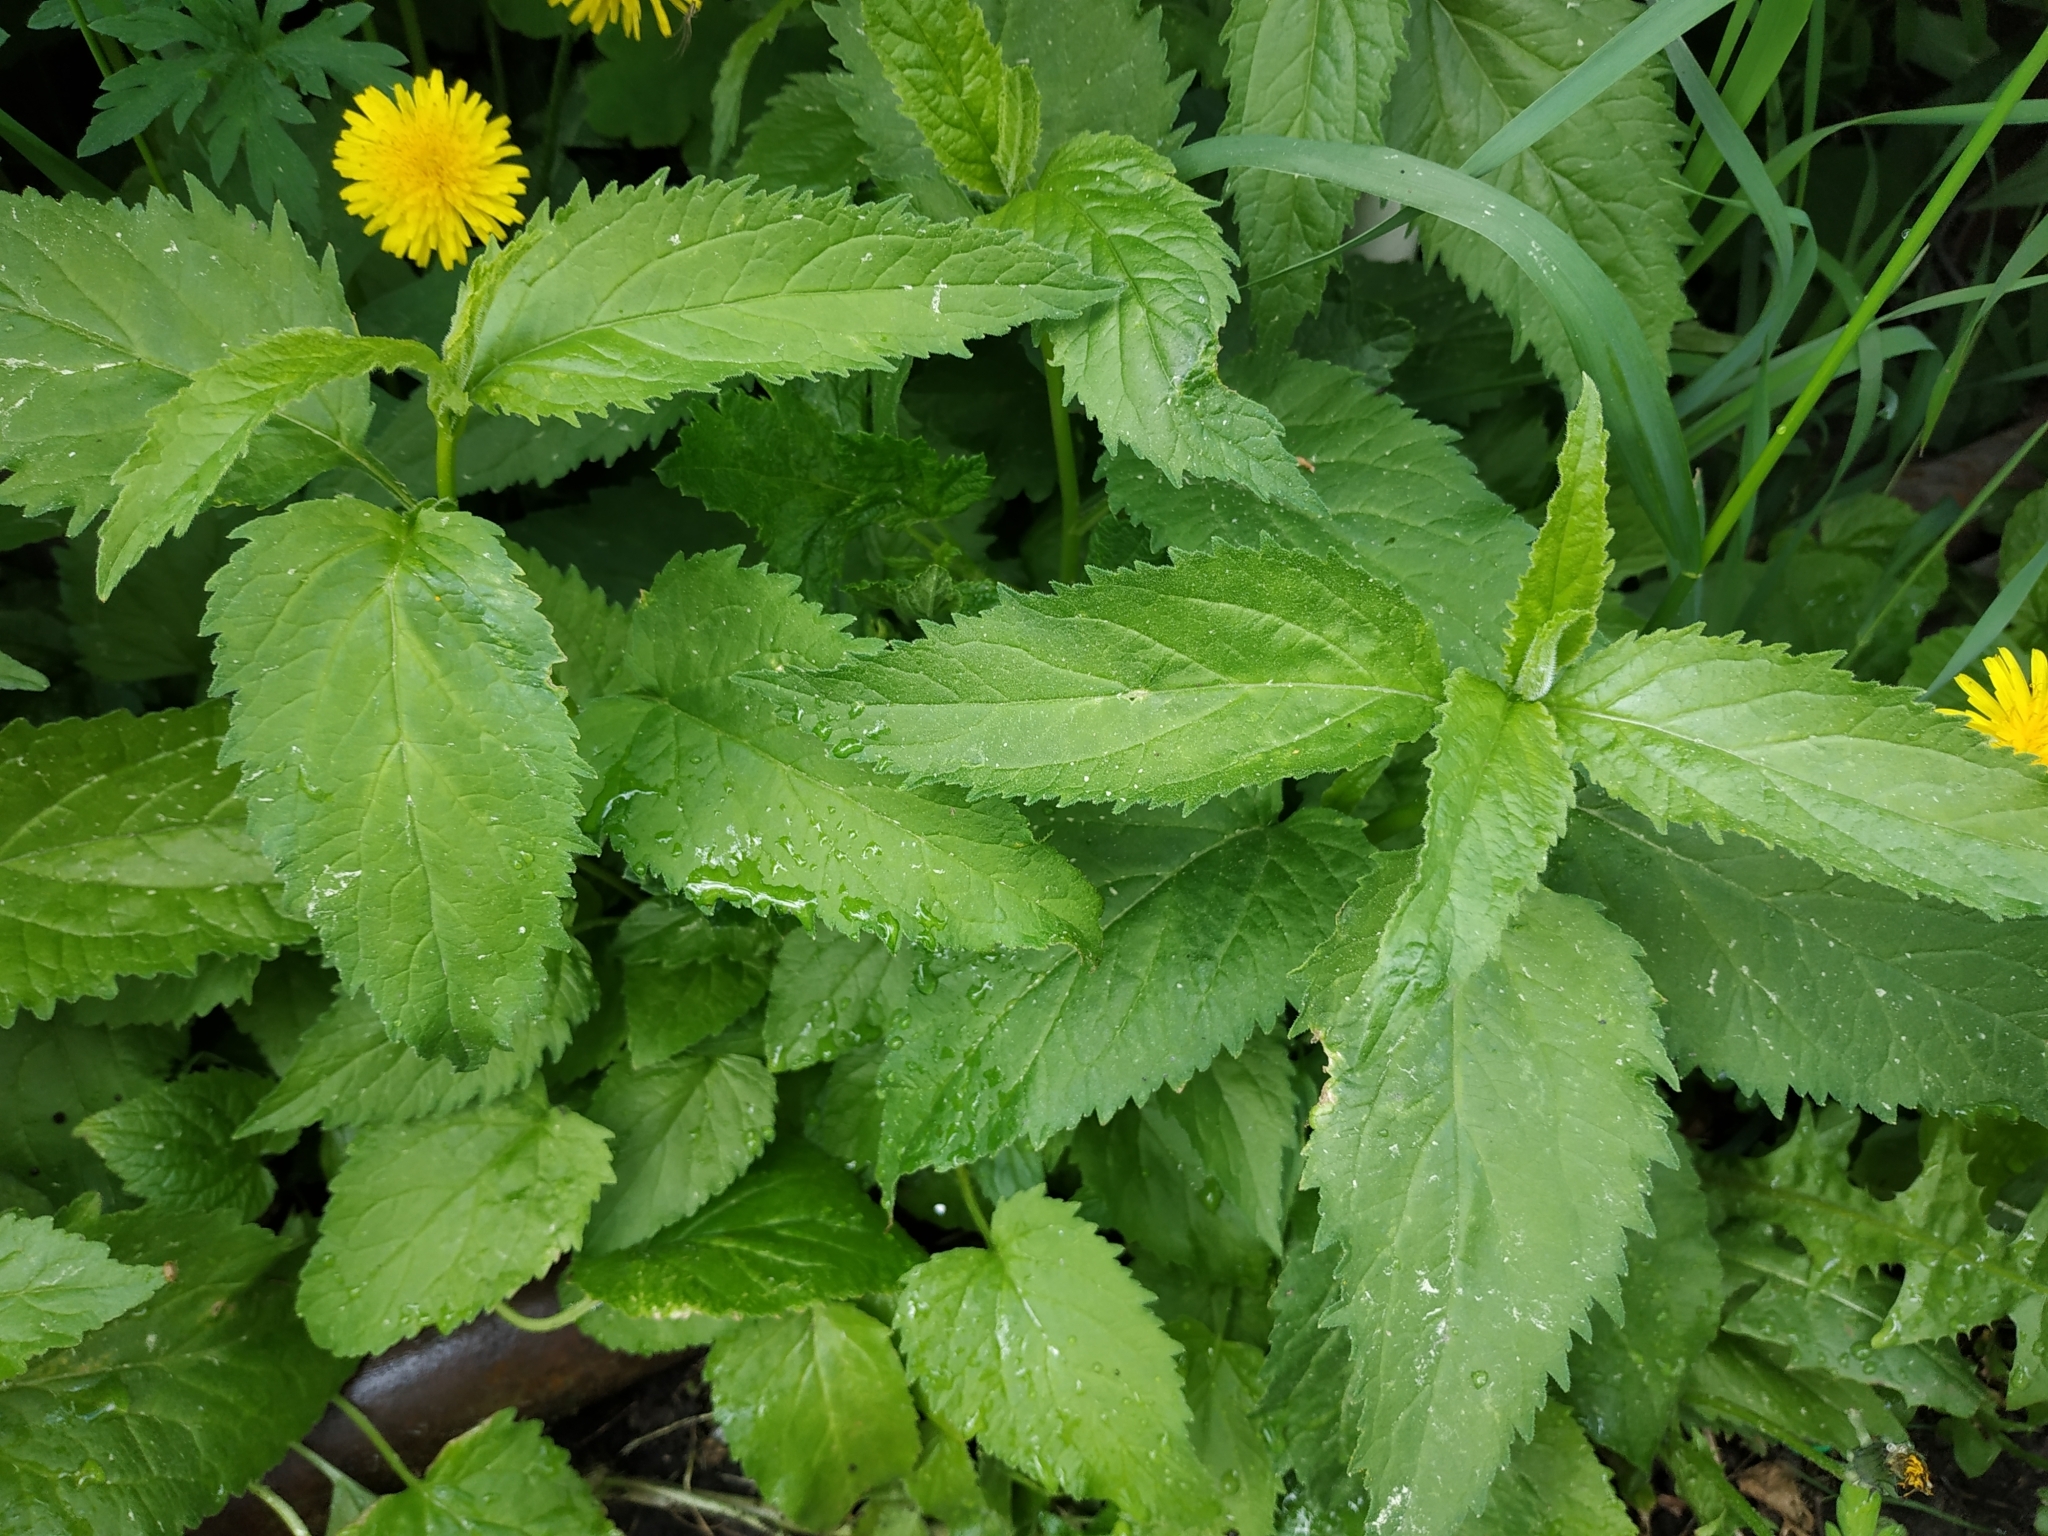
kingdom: Plantae
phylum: Tracheophyta
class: Magnoliopsida
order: Asterales
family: Campanulaceae
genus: Campanula
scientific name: Campanula latifolia
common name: Giant bellflower
